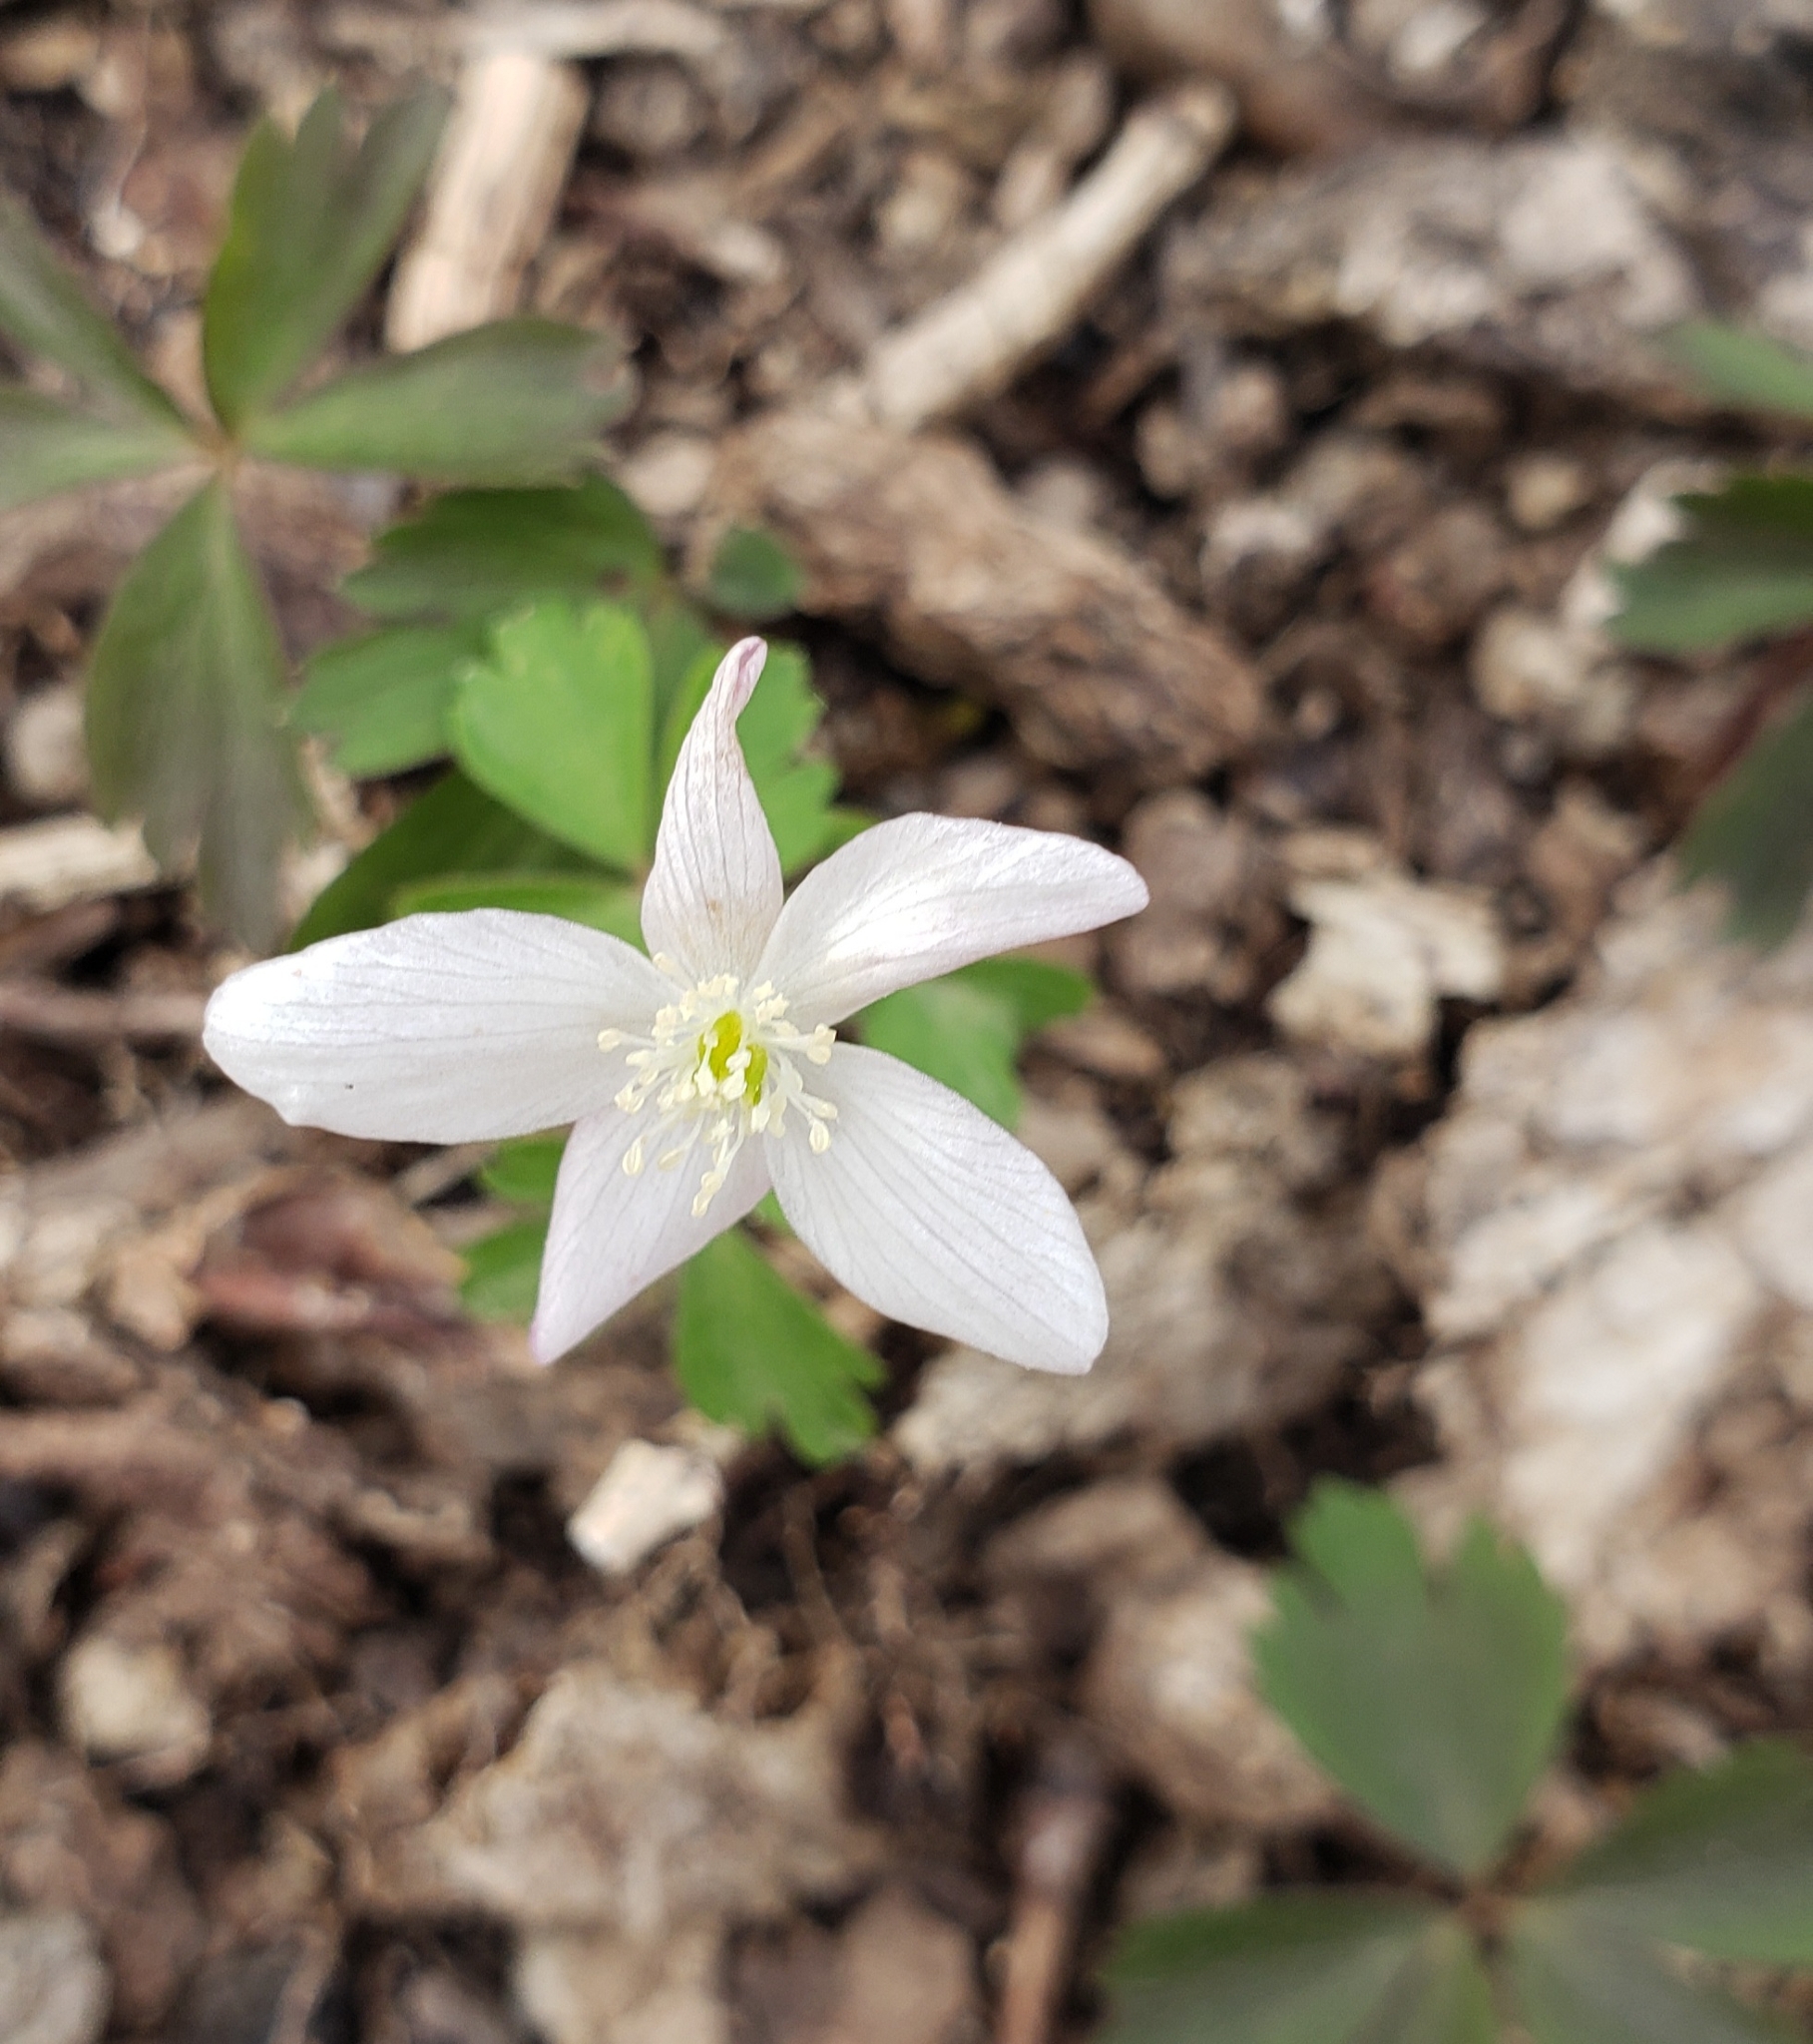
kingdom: Plantae
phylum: Tracheophyta
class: Magnoliopsida
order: Ranunculales
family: Ranunculaceae
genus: Anemone
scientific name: Anemone quinquefolia
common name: Wood anemone
